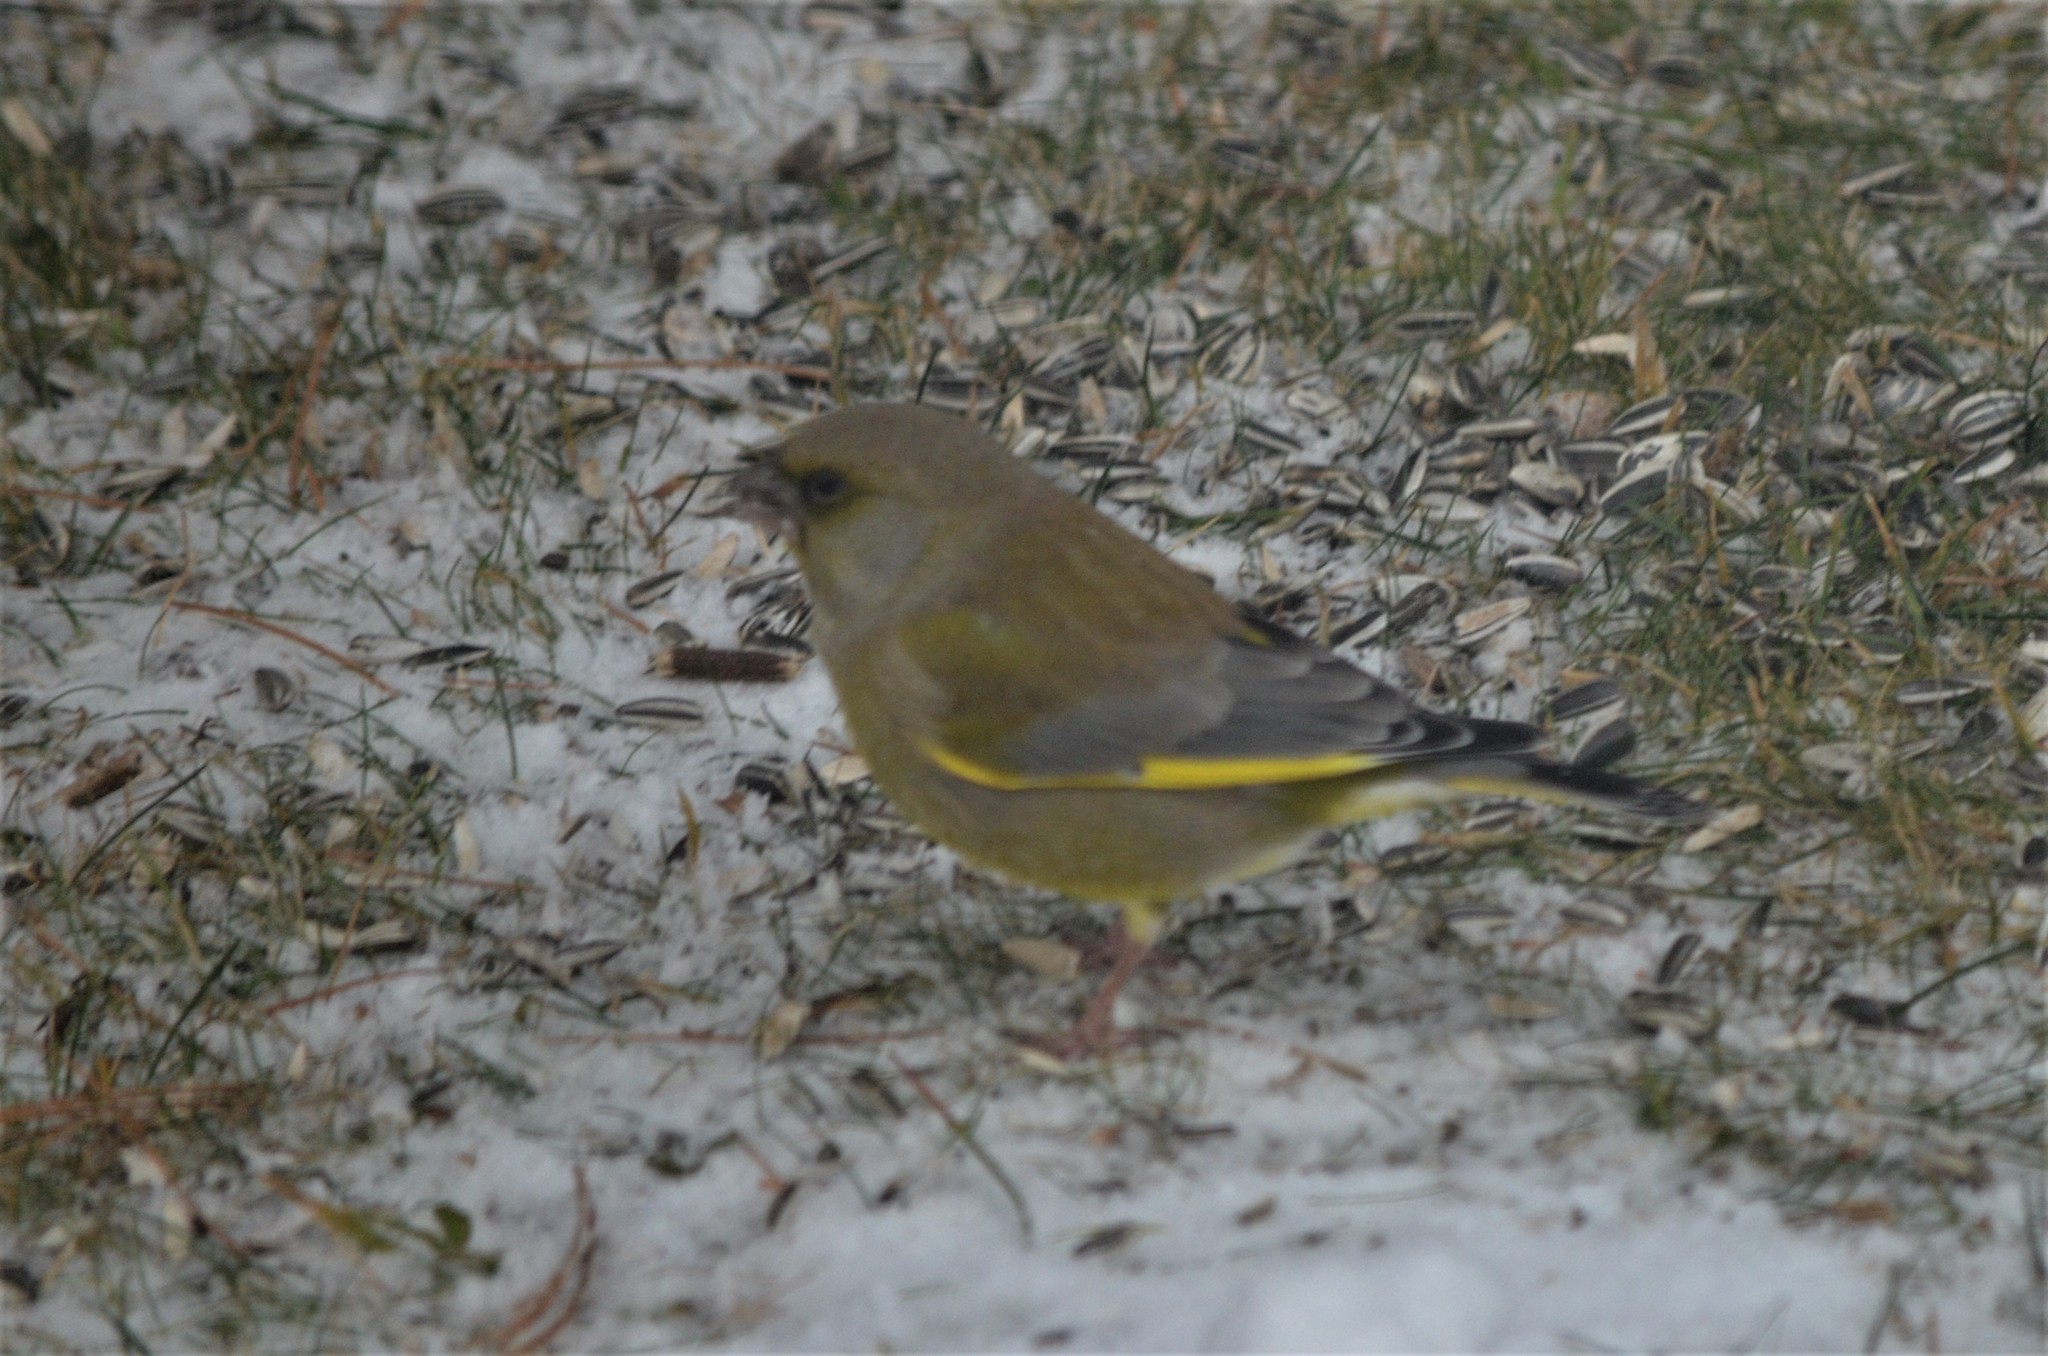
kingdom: Plantae
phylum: Tracheophyta
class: Liliopsida
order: Poales
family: Poaceae
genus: Chloris
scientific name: Chloris chloris
